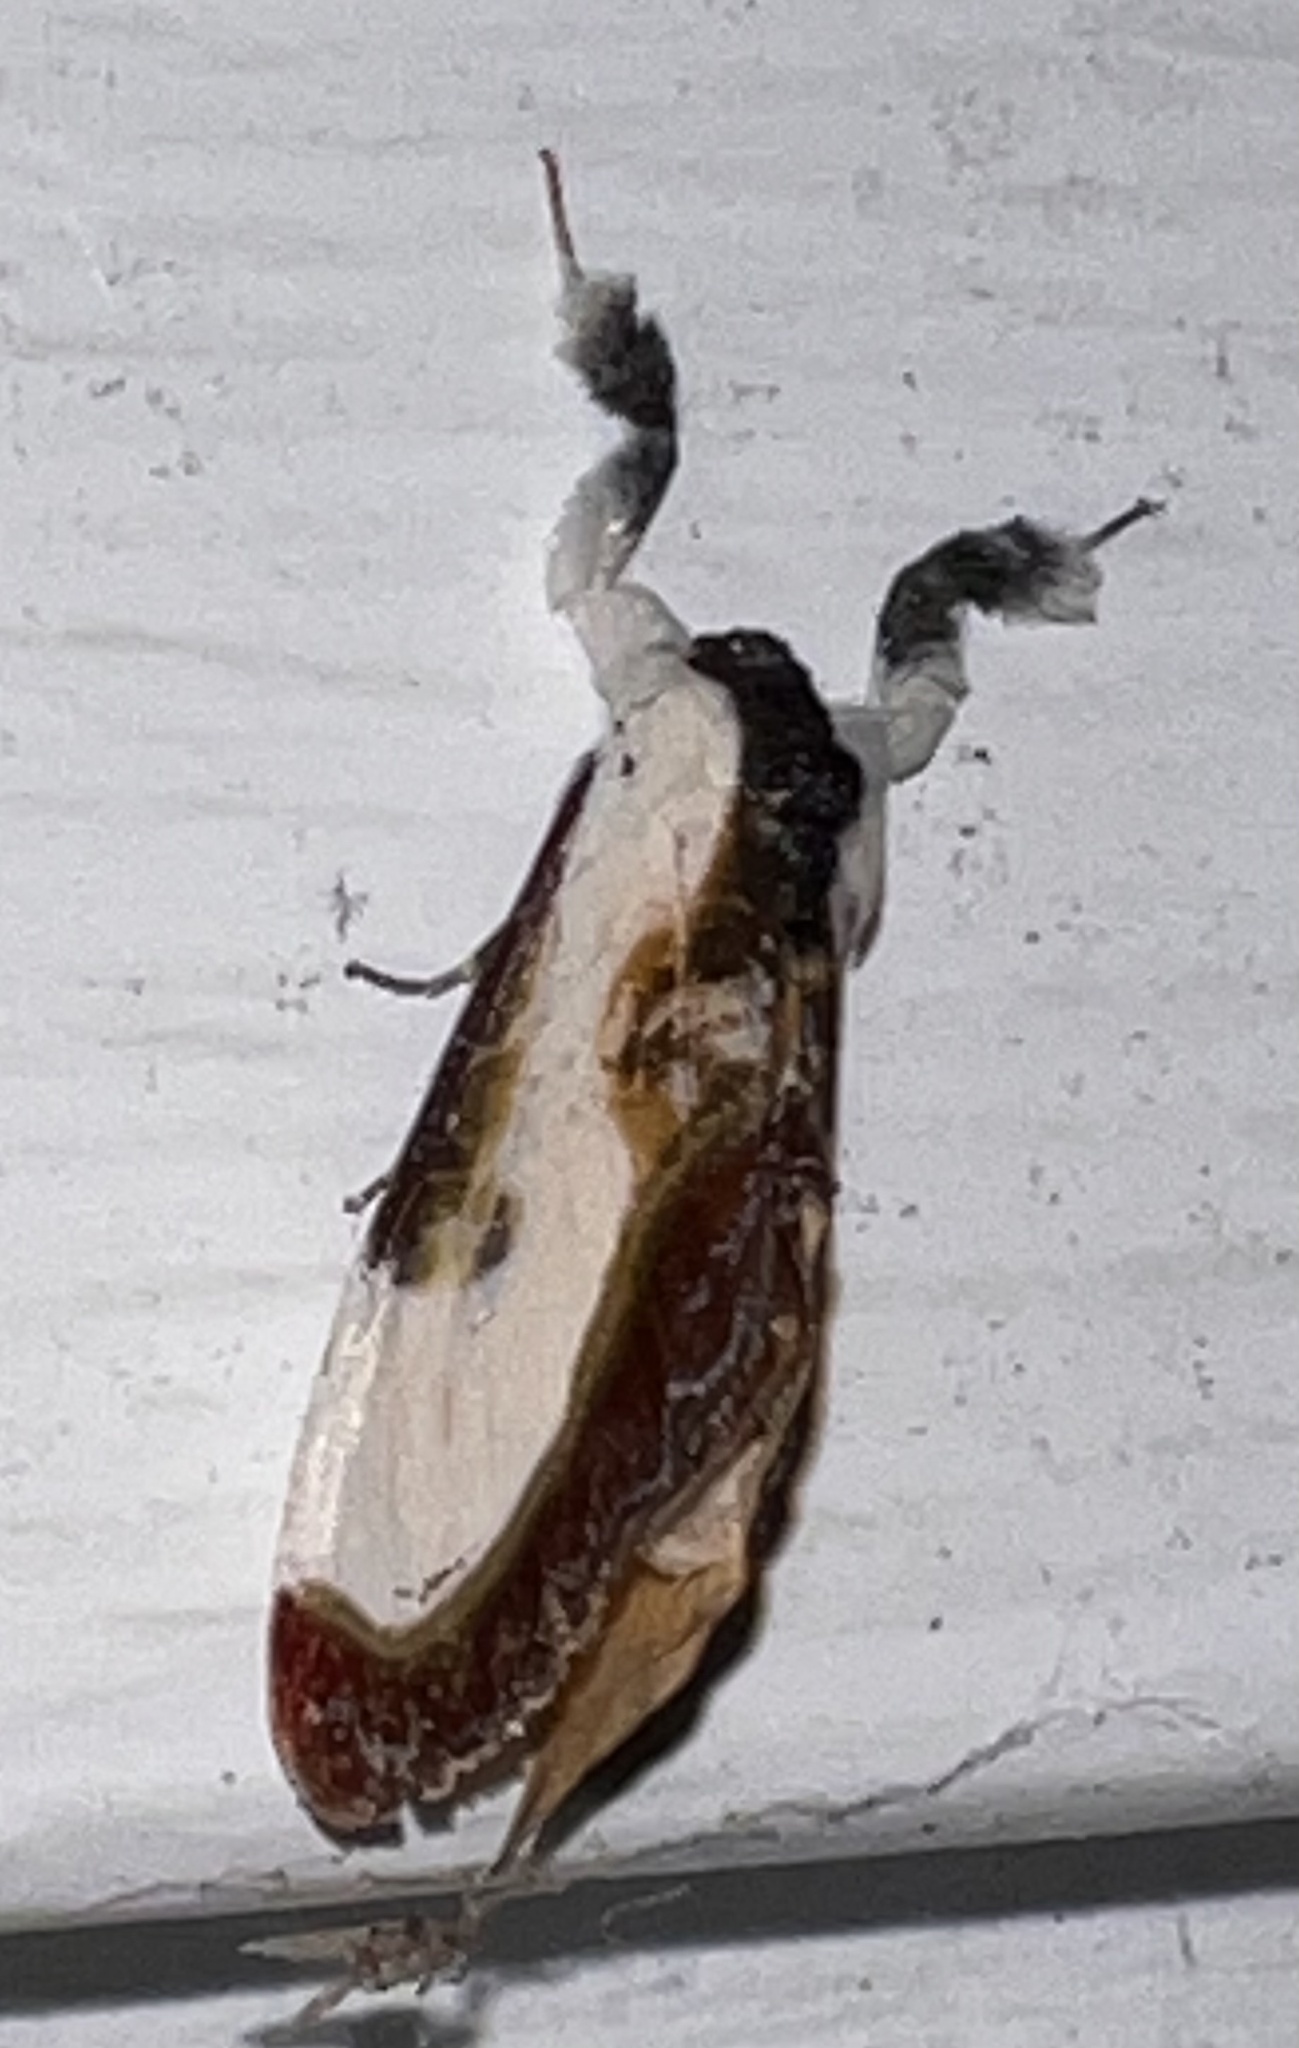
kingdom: Animalia
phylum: Arthropoda
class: Insecta
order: Lepidoptera
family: Noctuidae
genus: Eudryas
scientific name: Eudryas grata
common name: Beautiful wood-nymph
